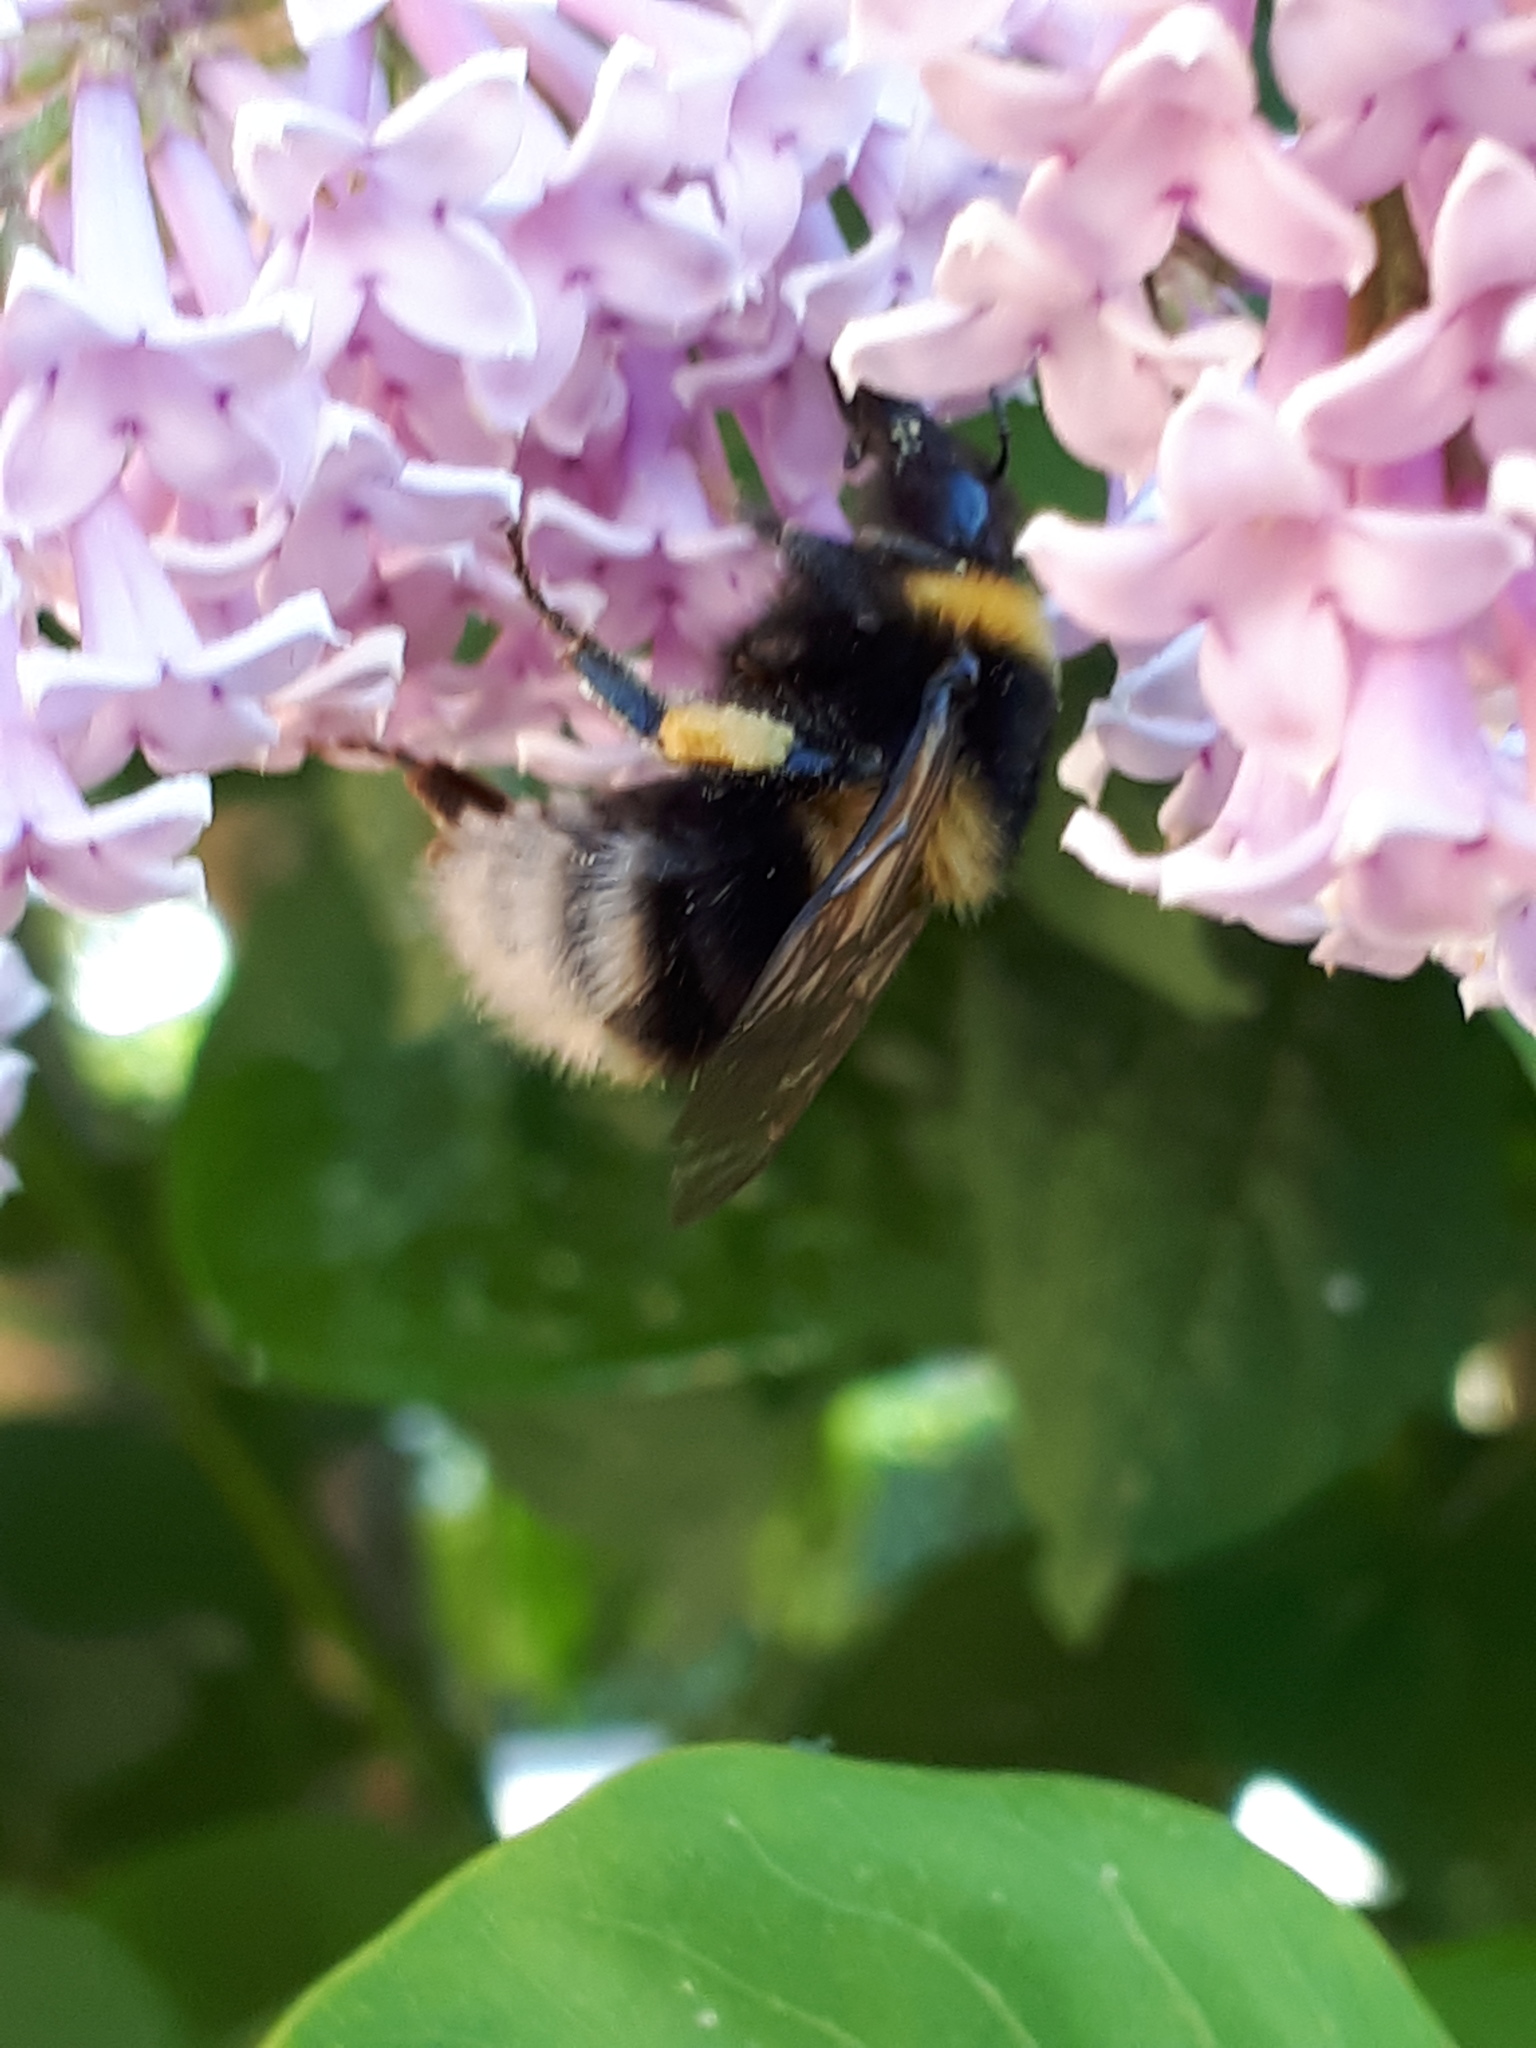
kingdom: Animalia
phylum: Arthropoda
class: Insecta
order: Hymenoptera
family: Apidae
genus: Bombus
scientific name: Bombus hortorum
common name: Garden bumblebee
